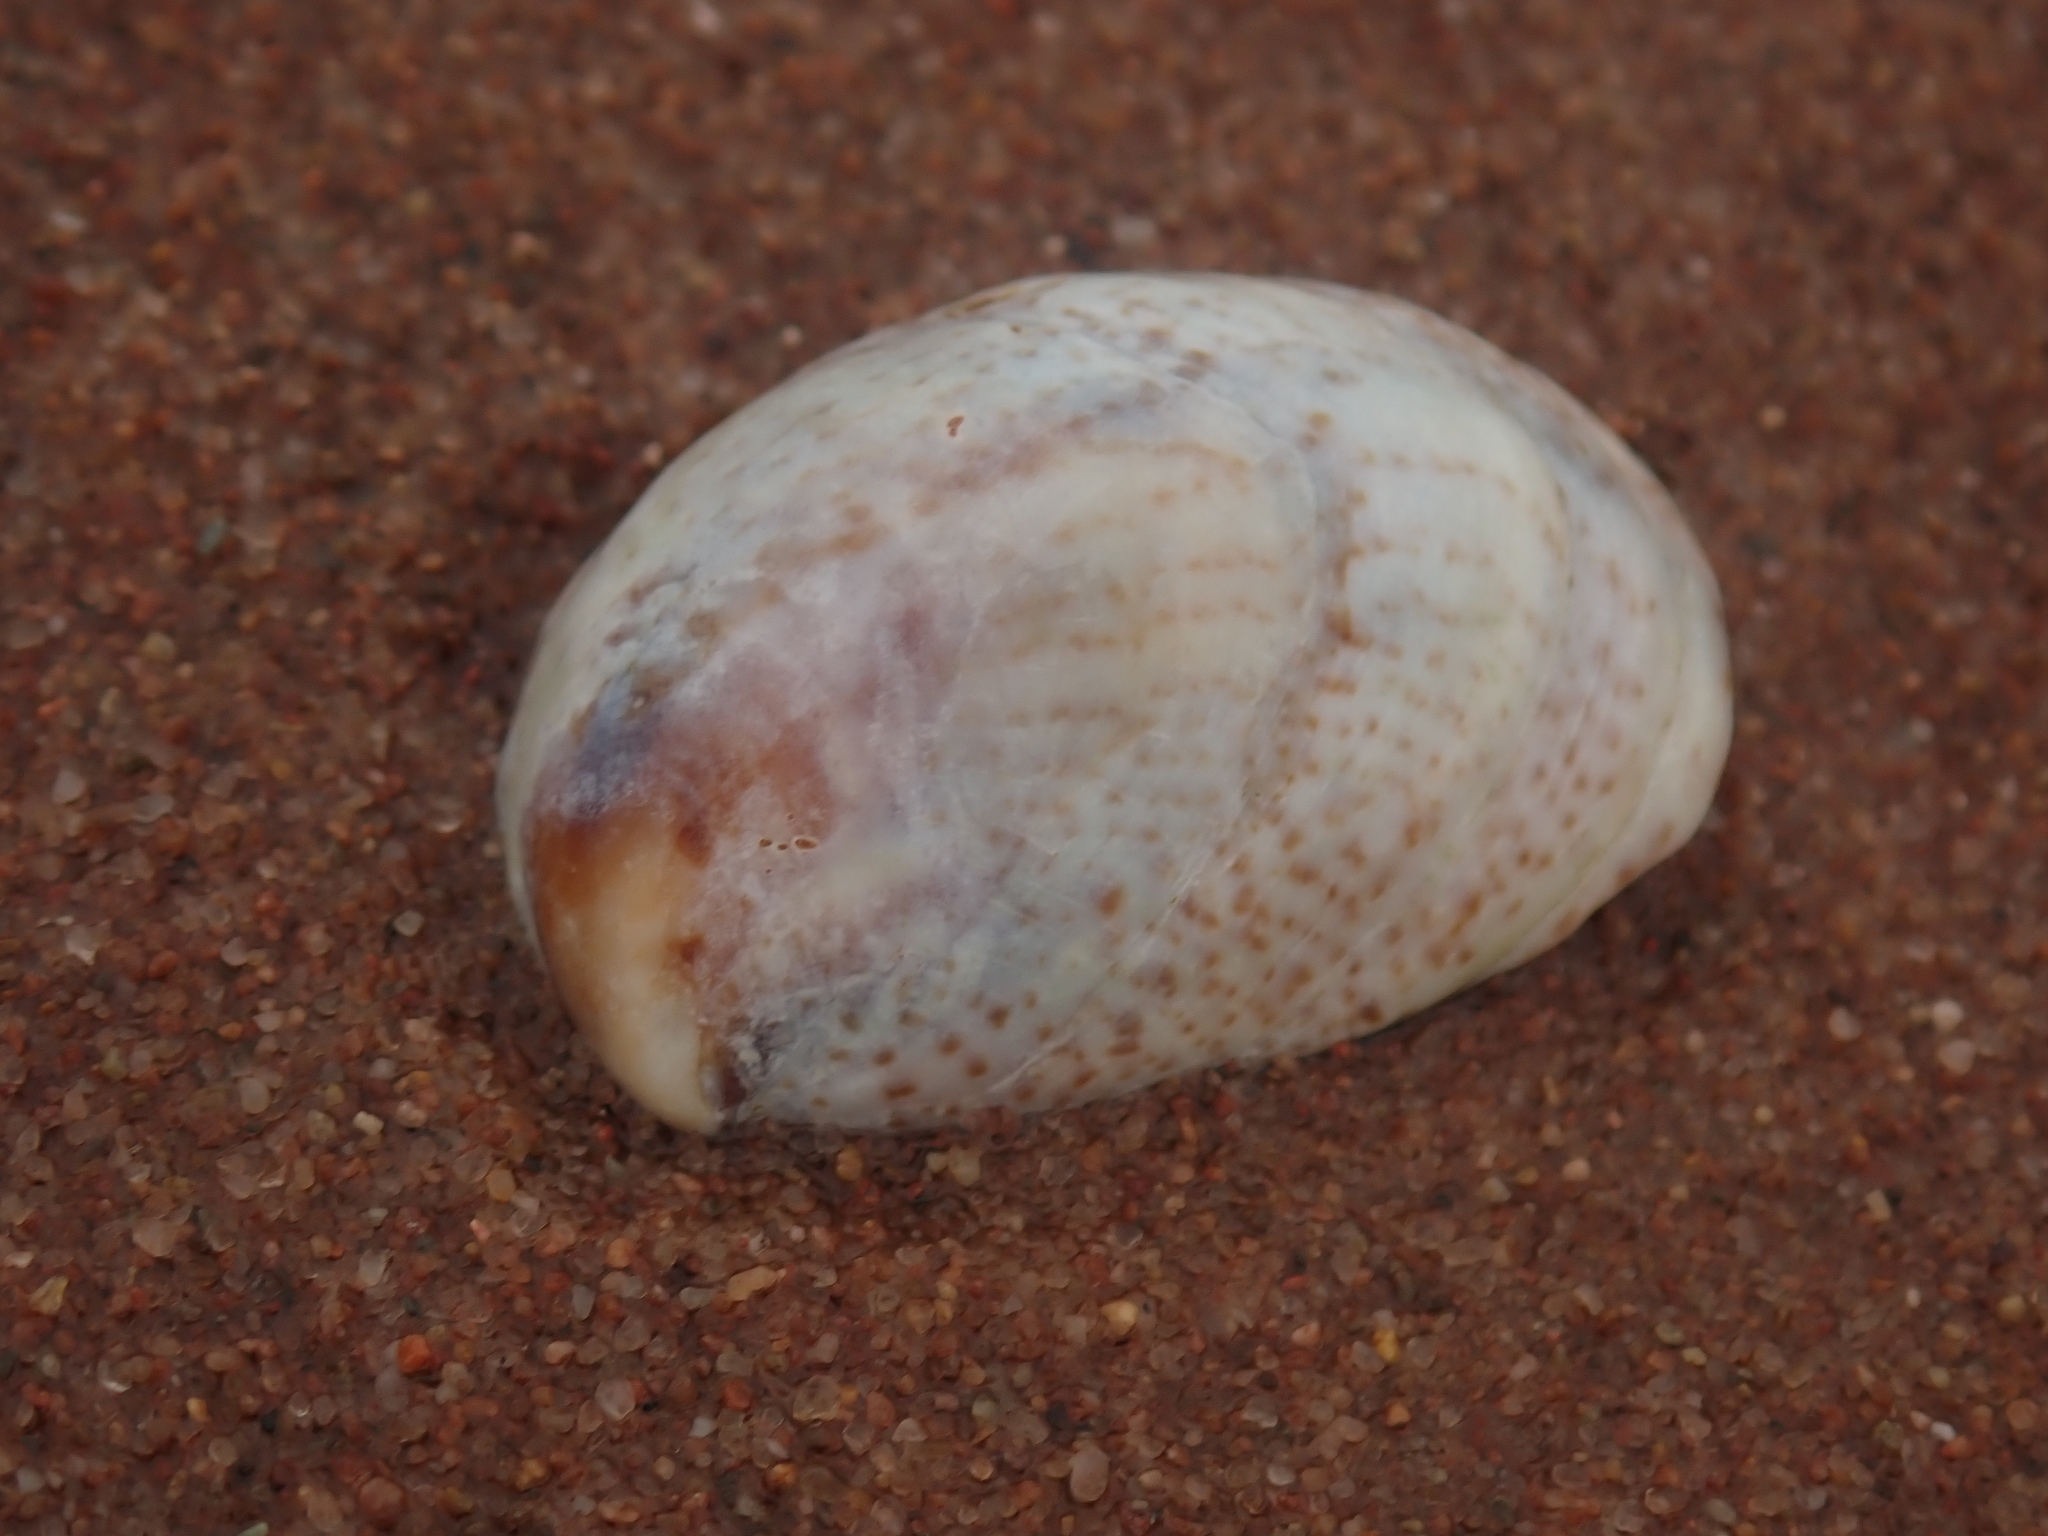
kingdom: Animalia
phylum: Mollusca
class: Gastropoda
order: Littorinimorpha
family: Calyptraeidae
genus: Crepidula
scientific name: Crepidula fornicata
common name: Slipper limpet
